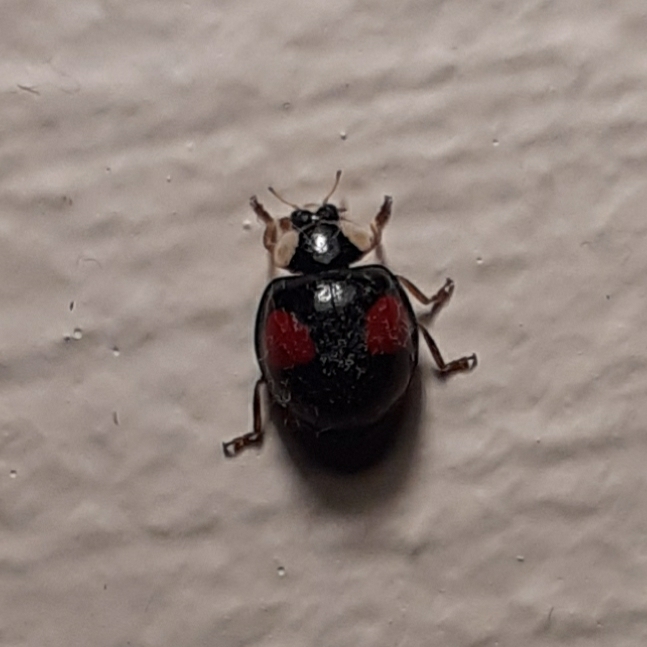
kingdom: Animalia
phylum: Arthropoda
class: Insecta
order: Coleoptera
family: Coccinellidae
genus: Harmonia
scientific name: Harmonia axyridis
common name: Harlequin ladybird
